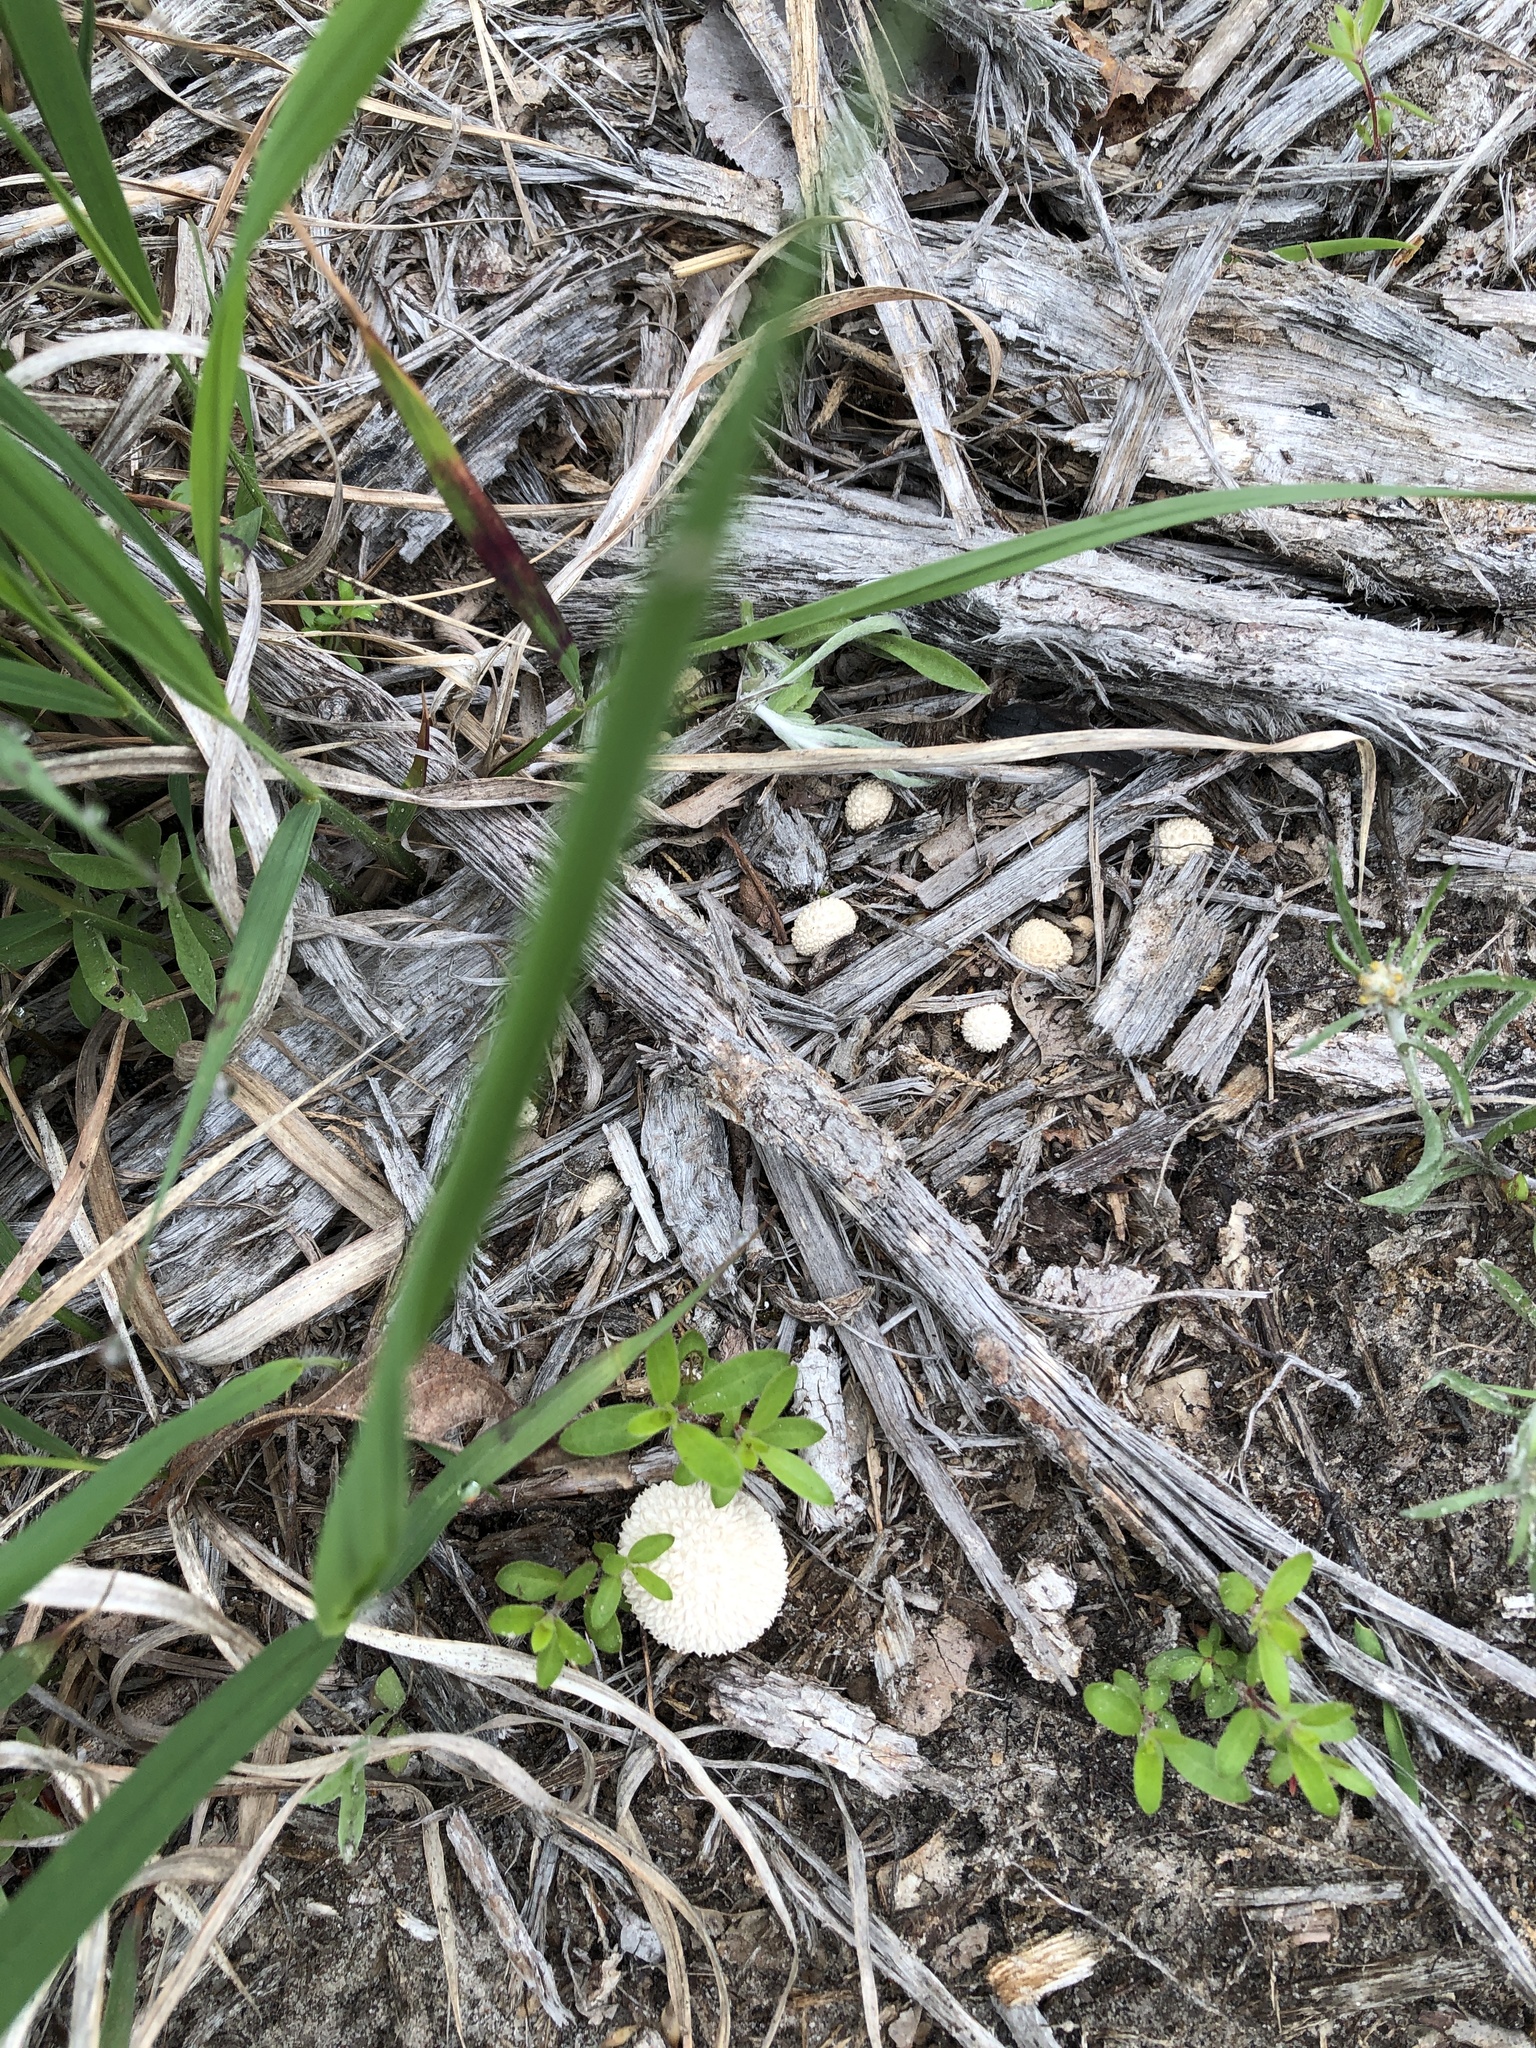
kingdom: Fungi
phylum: Basidiomycota
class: Agaricomycetes
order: Agaricales
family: Agaricaceae
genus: Lycoperdon
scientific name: Lycoperdon marginatum
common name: Peeling puffball
